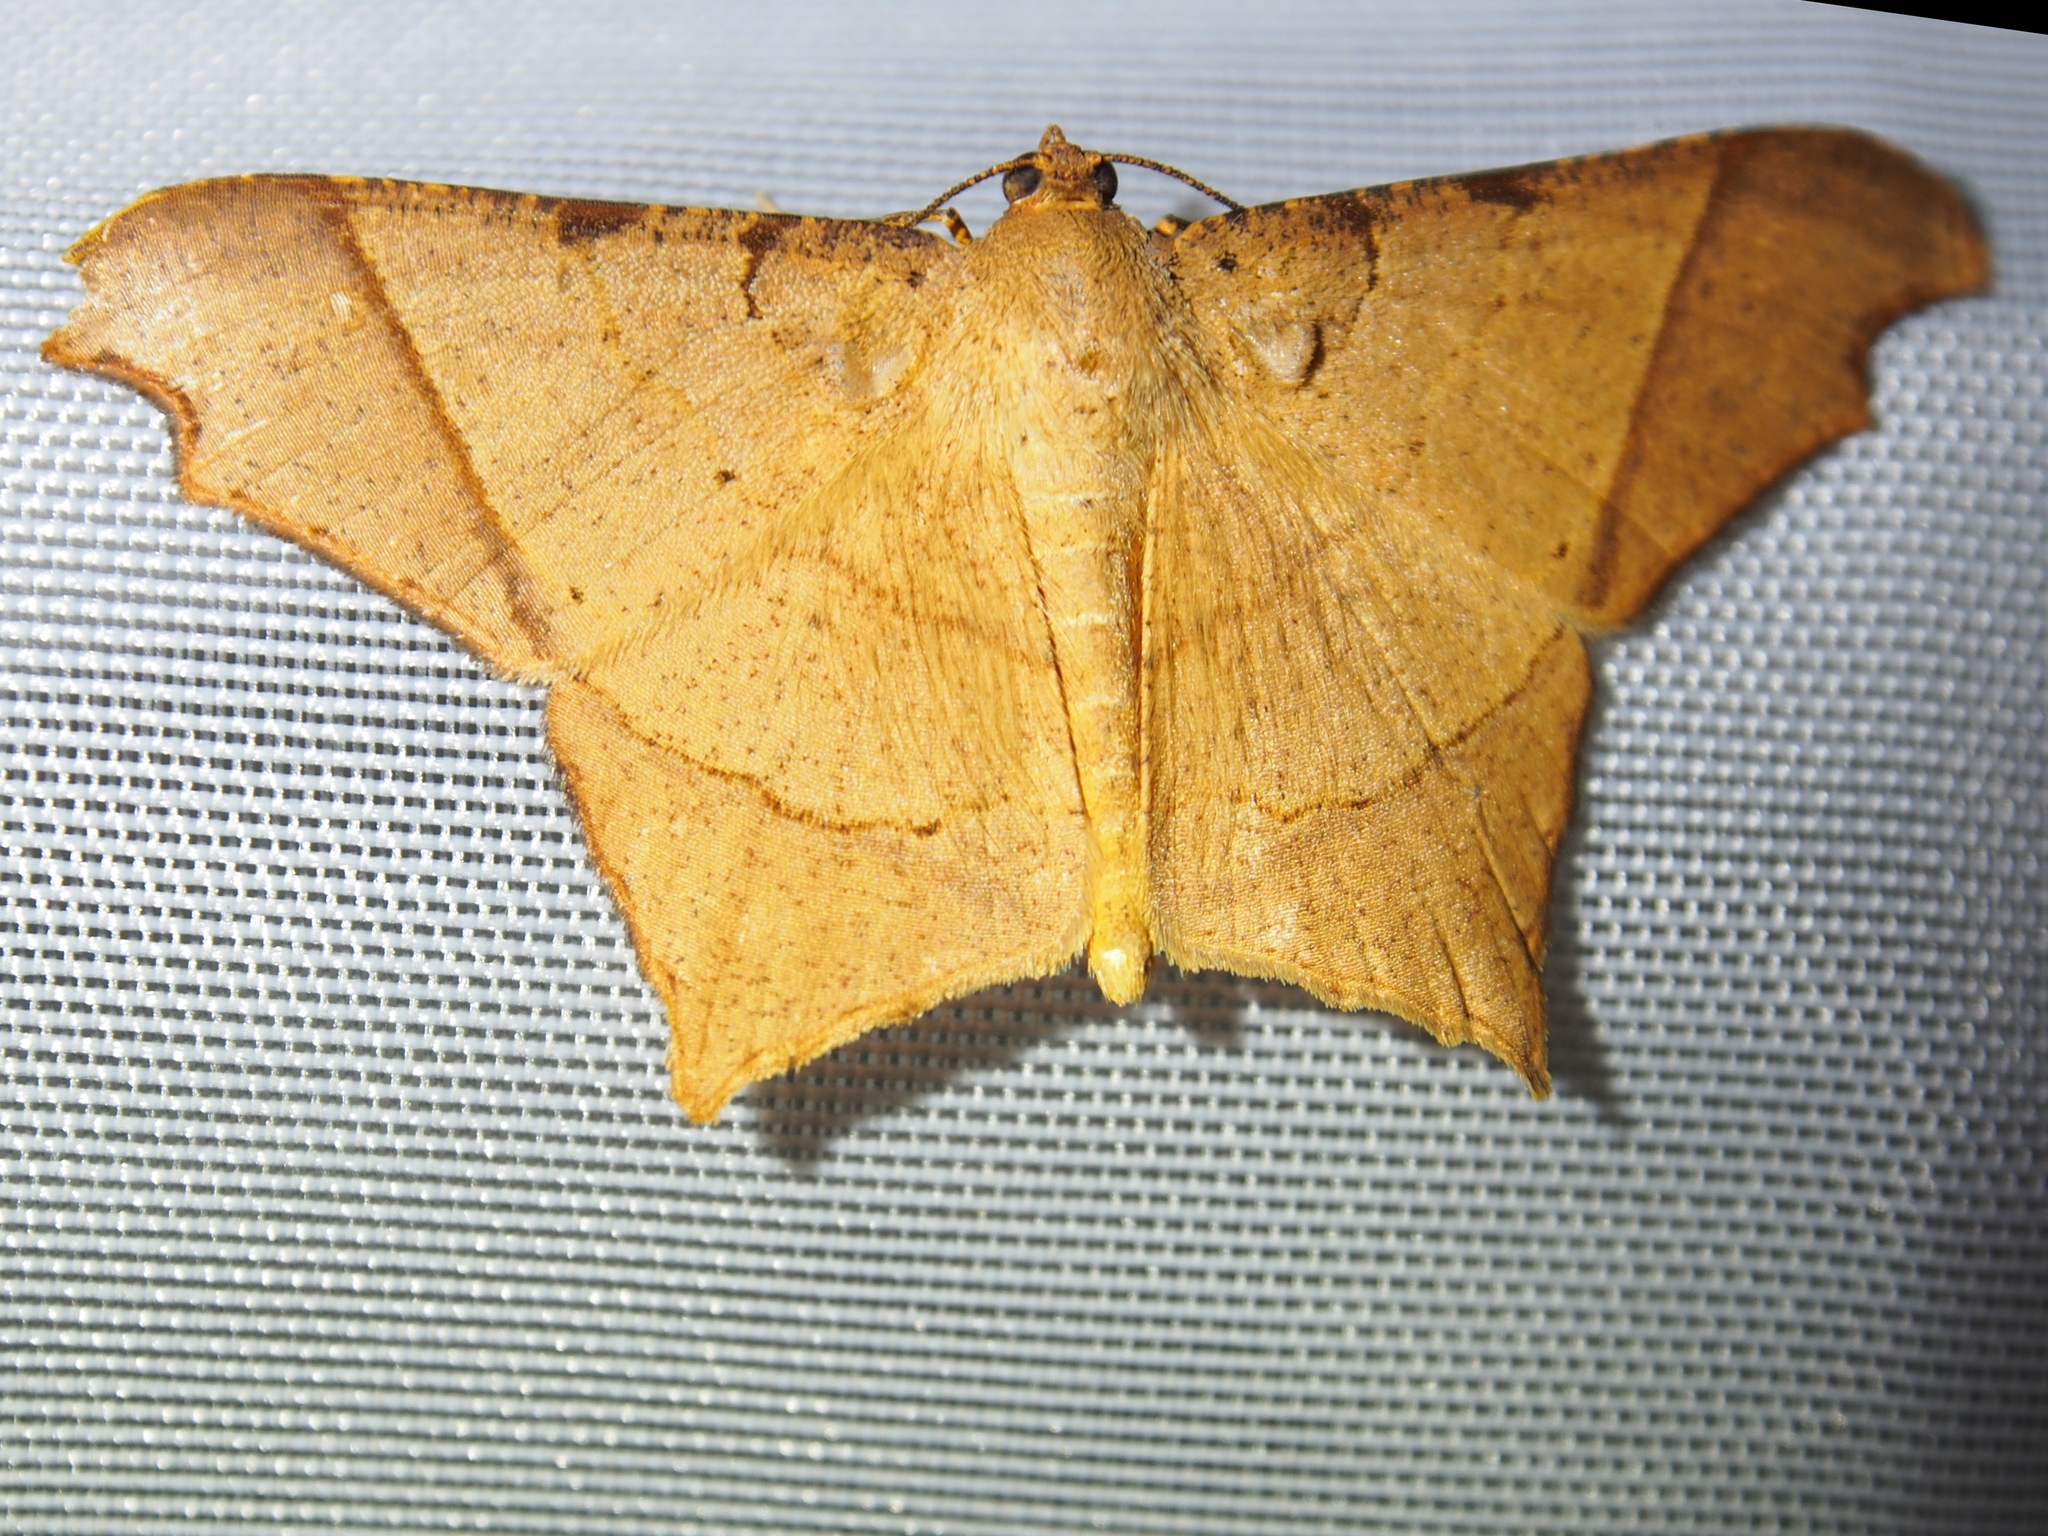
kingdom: Animalia
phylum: Arthropoda
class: Insecta
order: Lepidoptera
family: Geometridae
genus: Macaria
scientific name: Macaria subfulva
